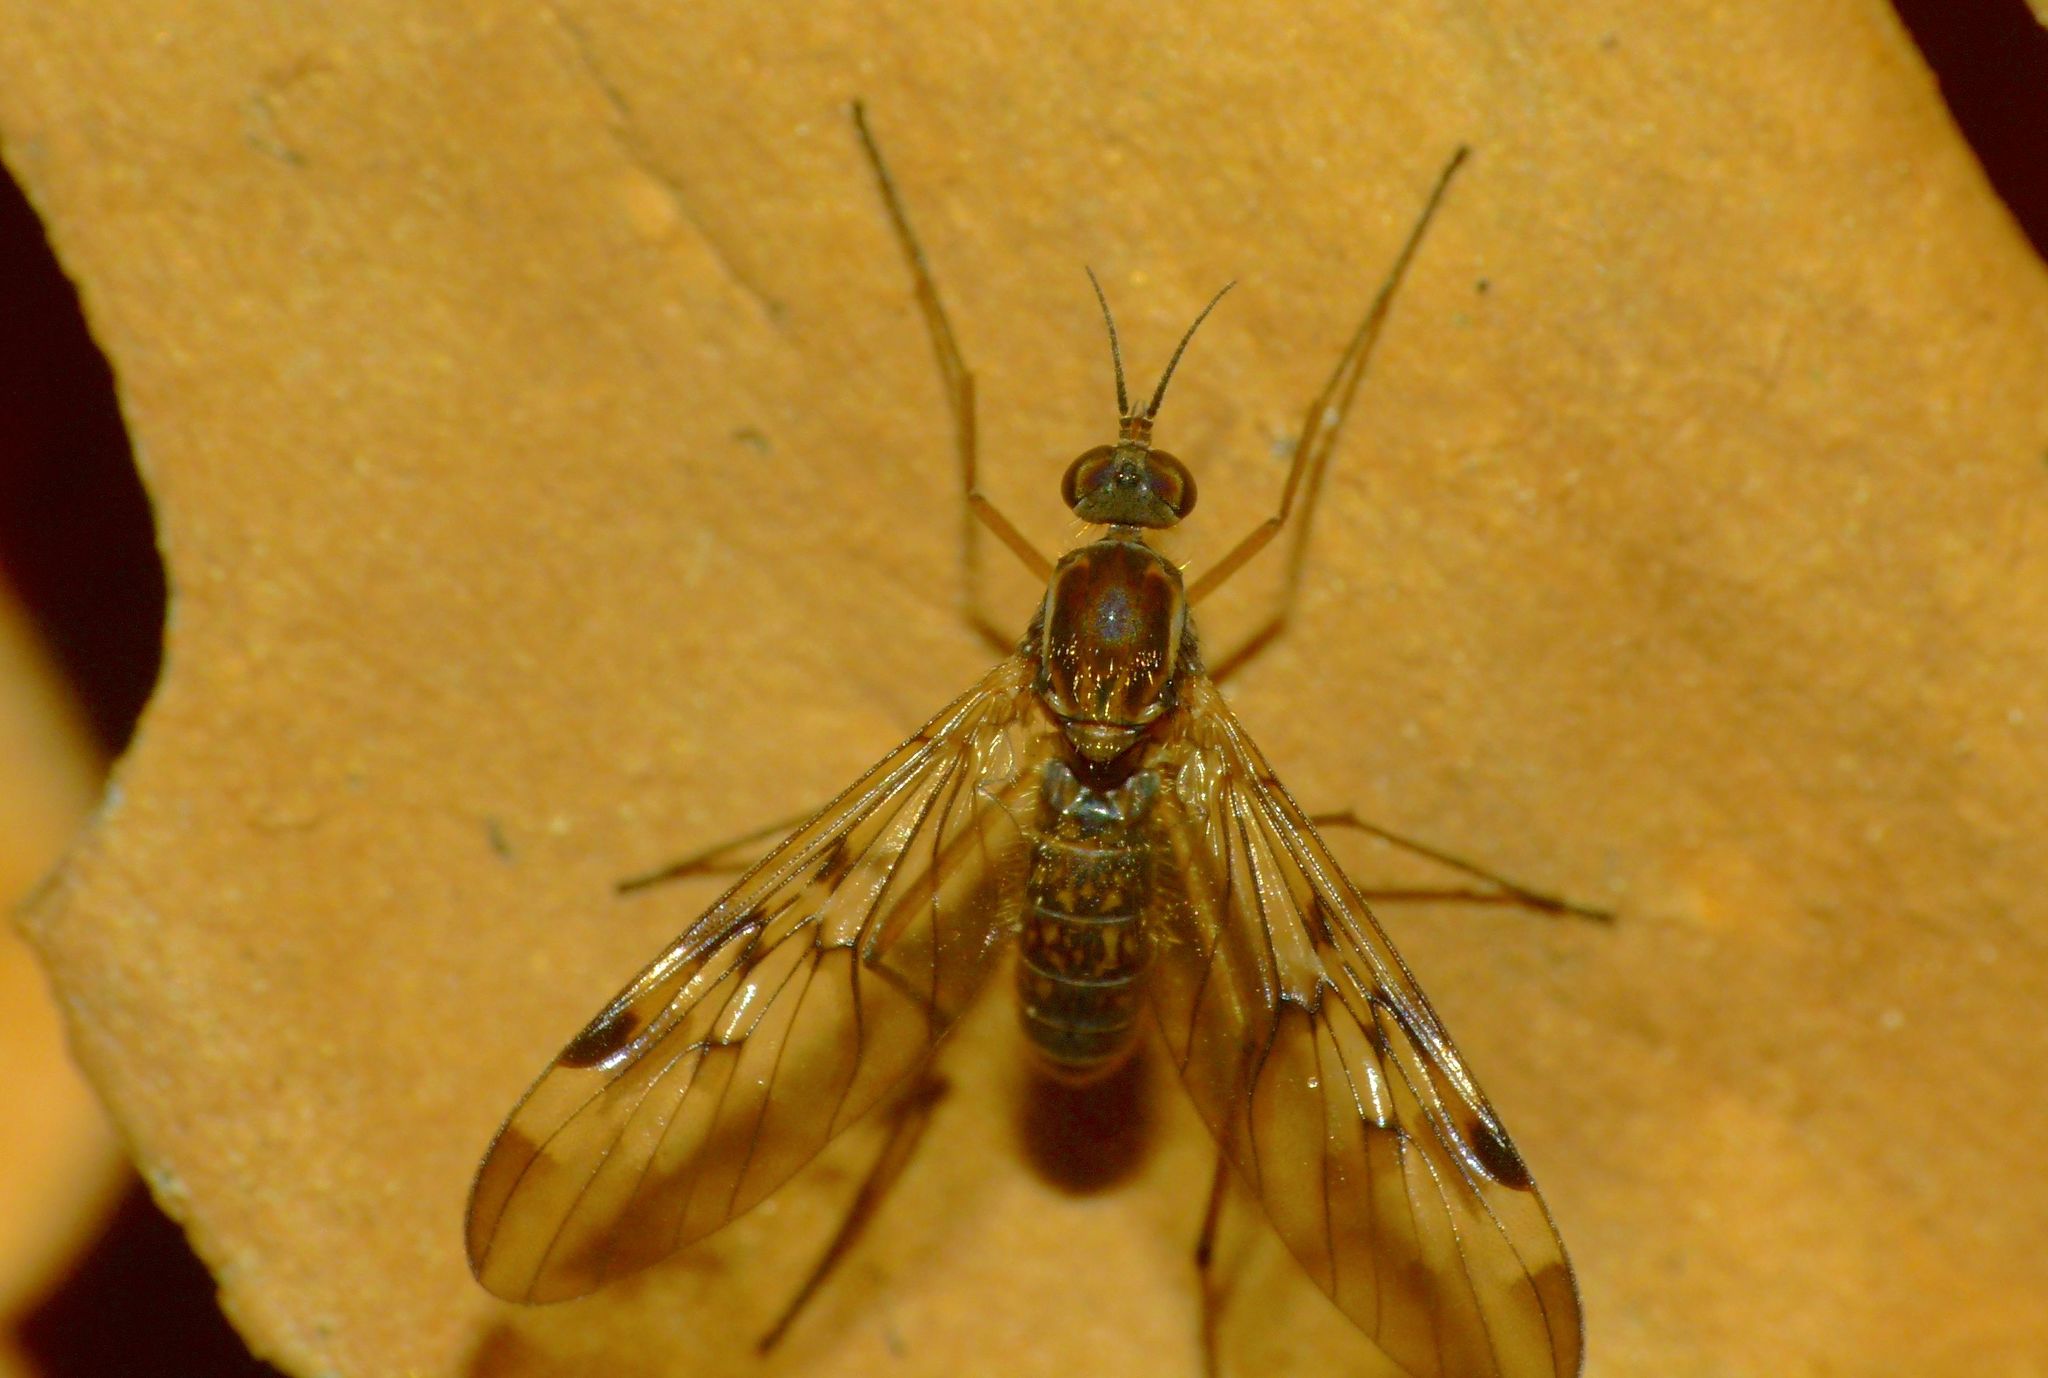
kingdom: Animalia
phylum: Arthropoda
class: Insecta
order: Diptera
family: Anisopodidae
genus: Sylvicola
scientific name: Sylvicola undulatus
